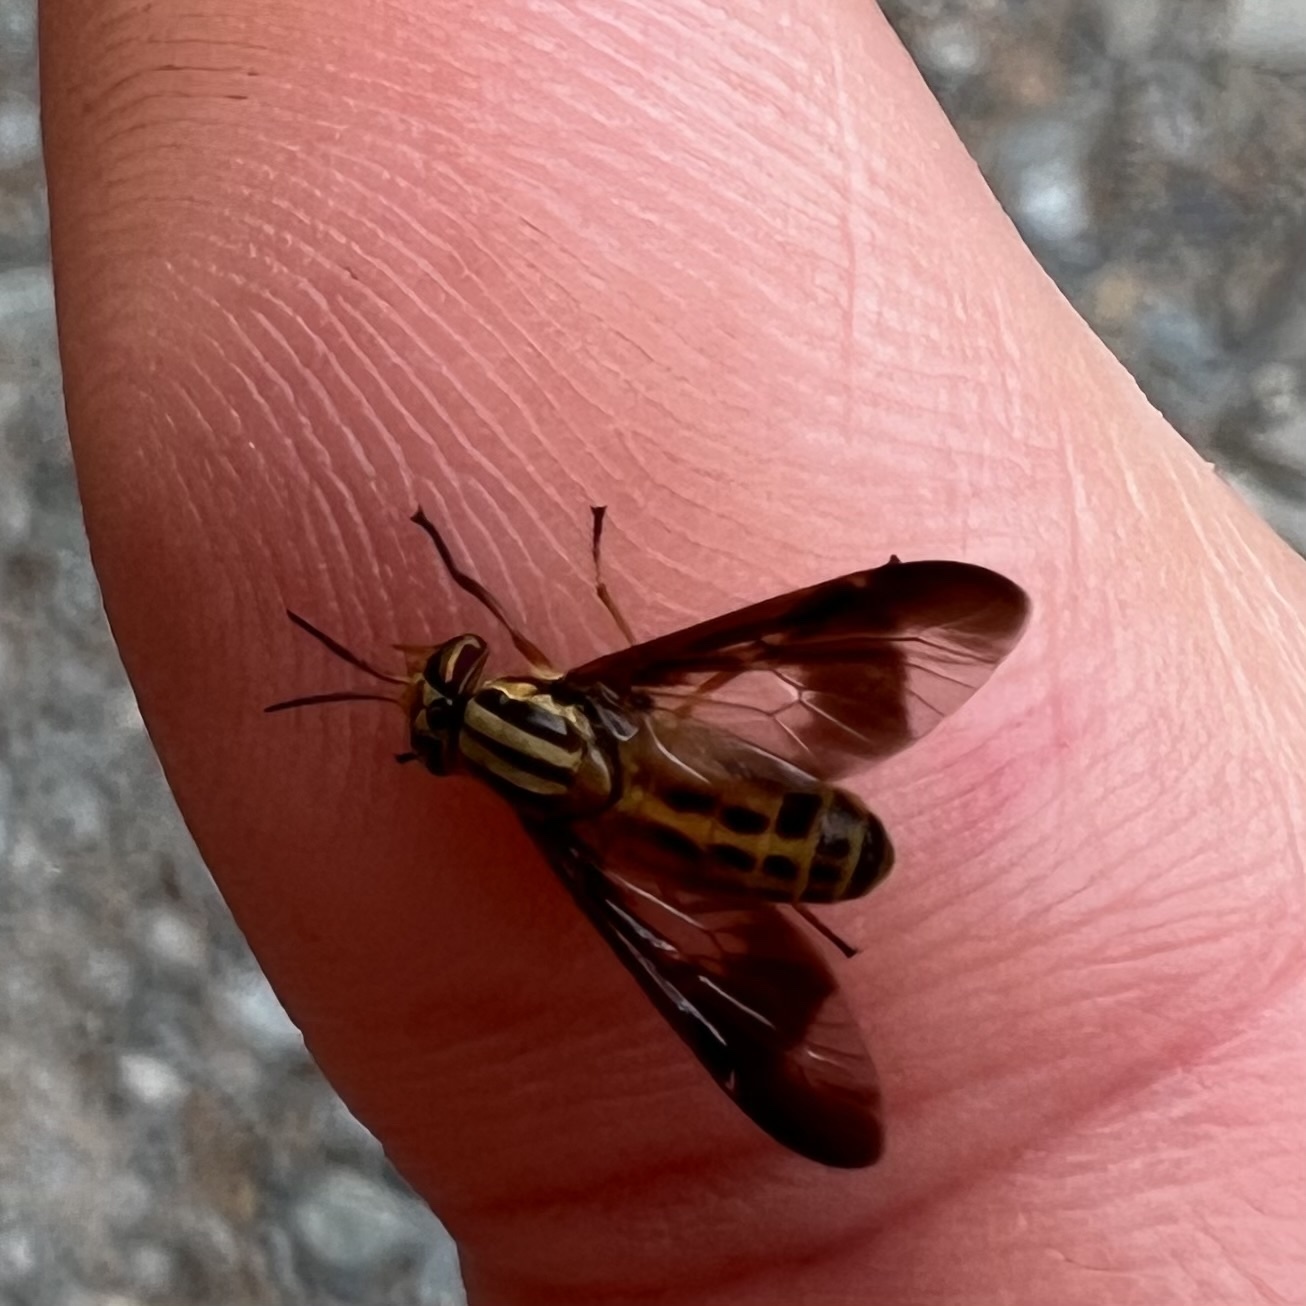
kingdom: Animalia
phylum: Arthropoda
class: Insecta
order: Diptera
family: Tabanidae
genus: Chrysops
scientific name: Chrysops vittatus
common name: Striped deer fly
